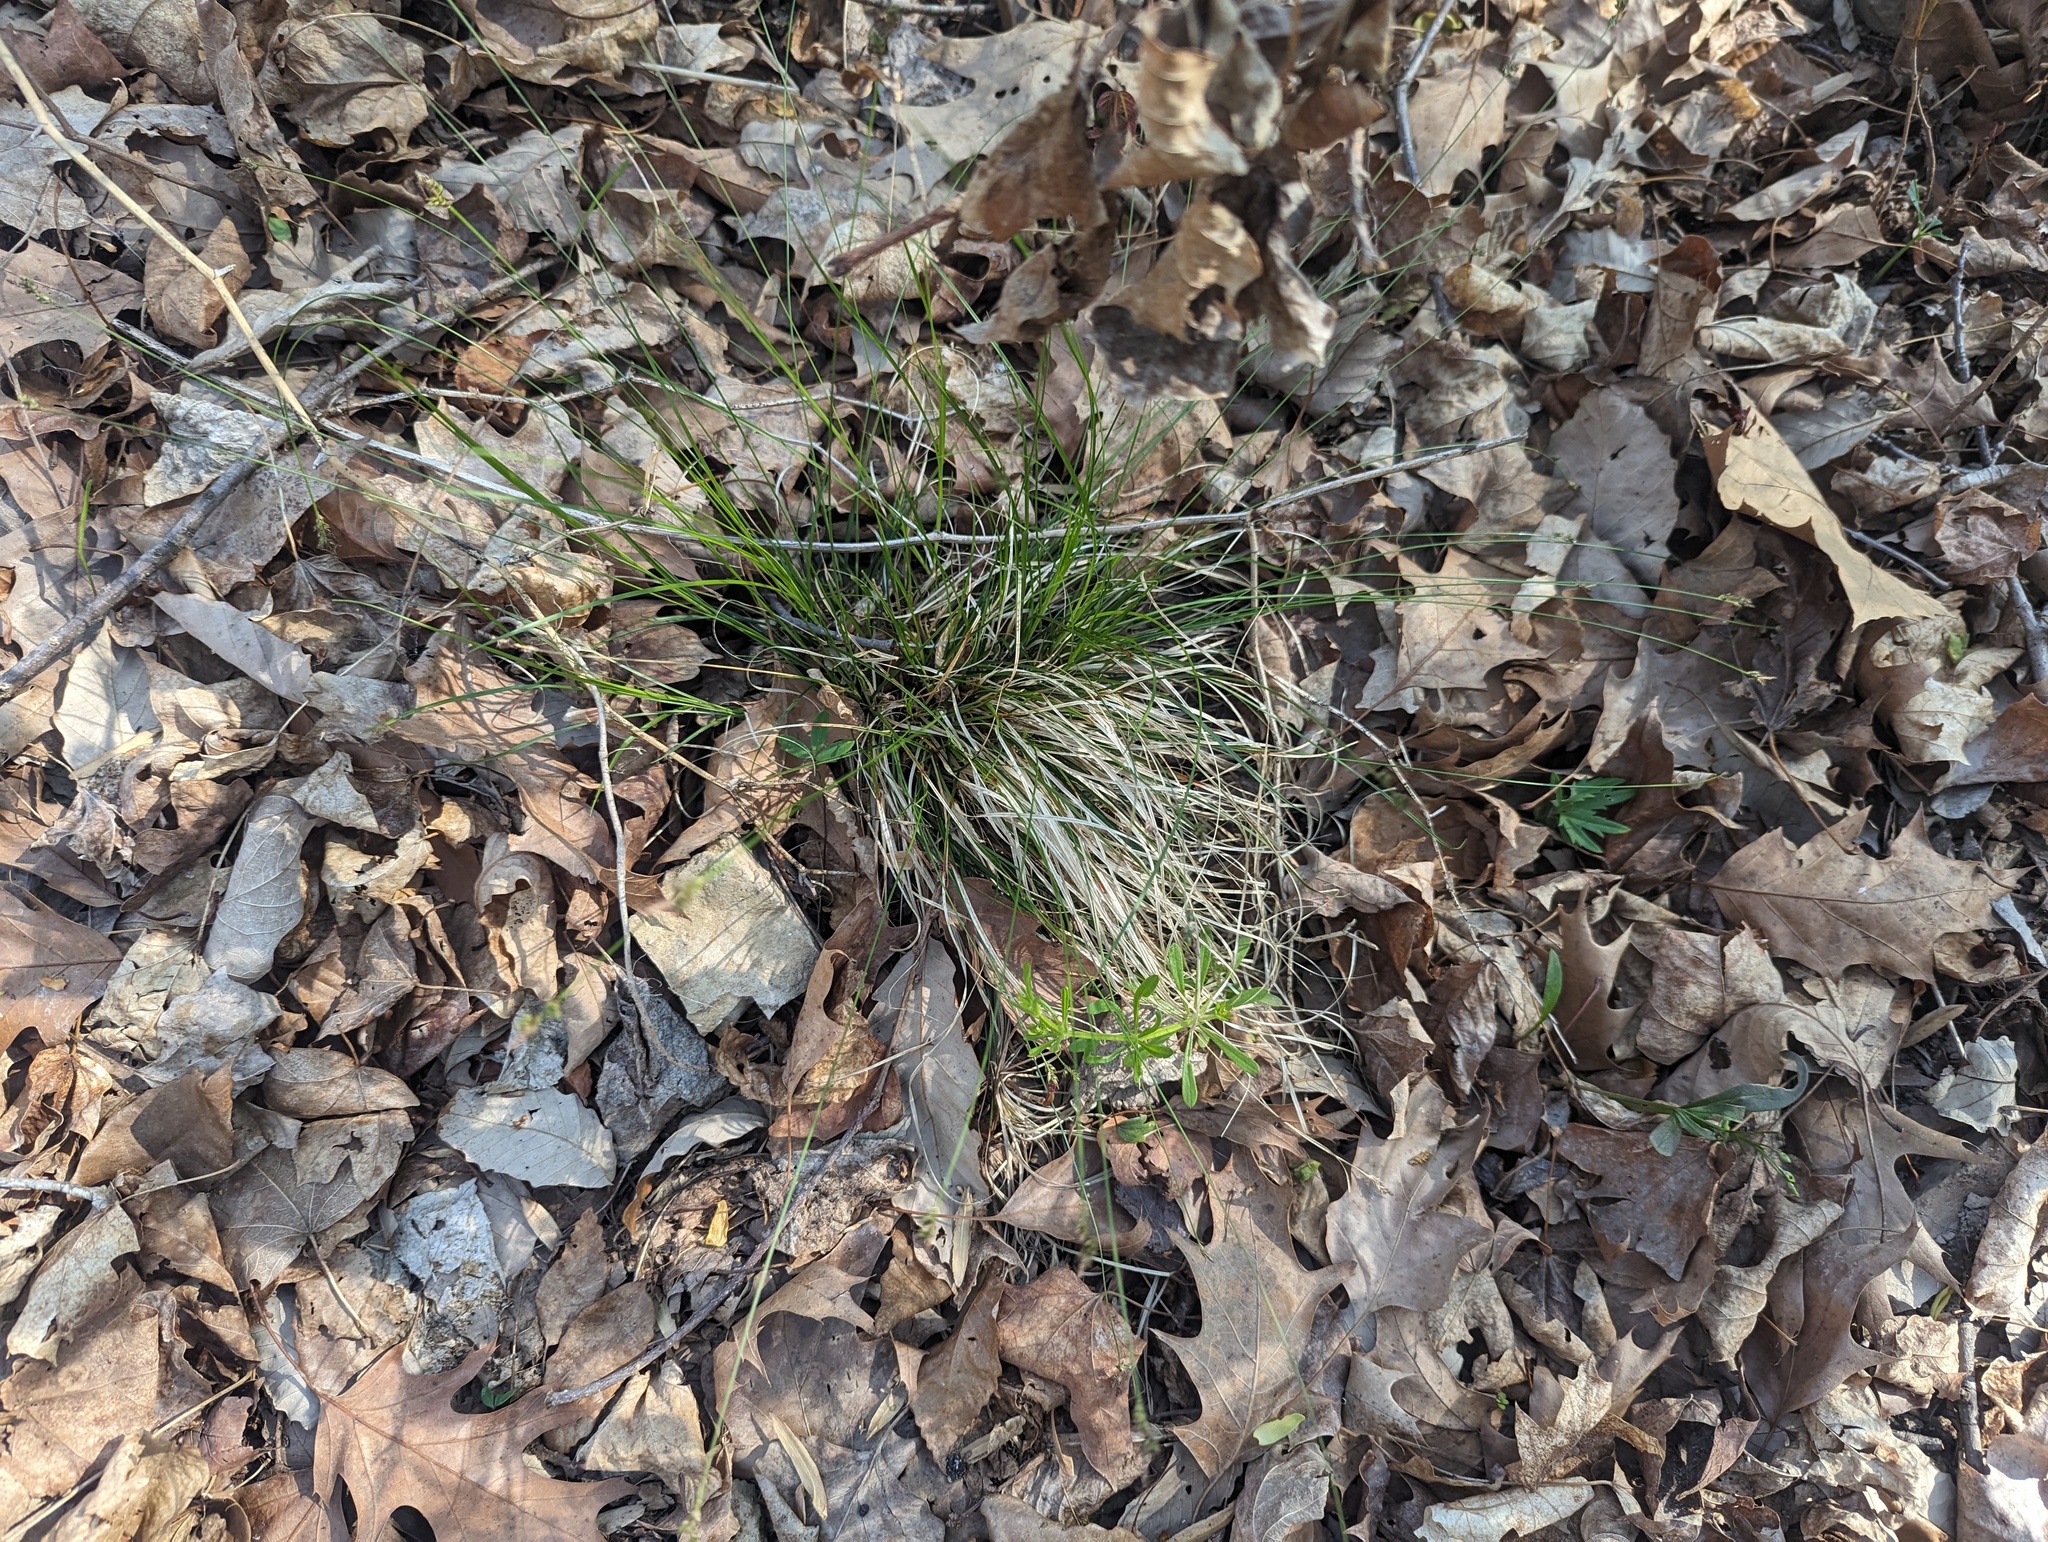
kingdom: Plantae
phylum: Tracheophyta
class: Liliopsida
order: Poales
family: Cyperaceae
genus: Carex
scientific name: Carex albicans
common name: Bellow-beaked sedge
